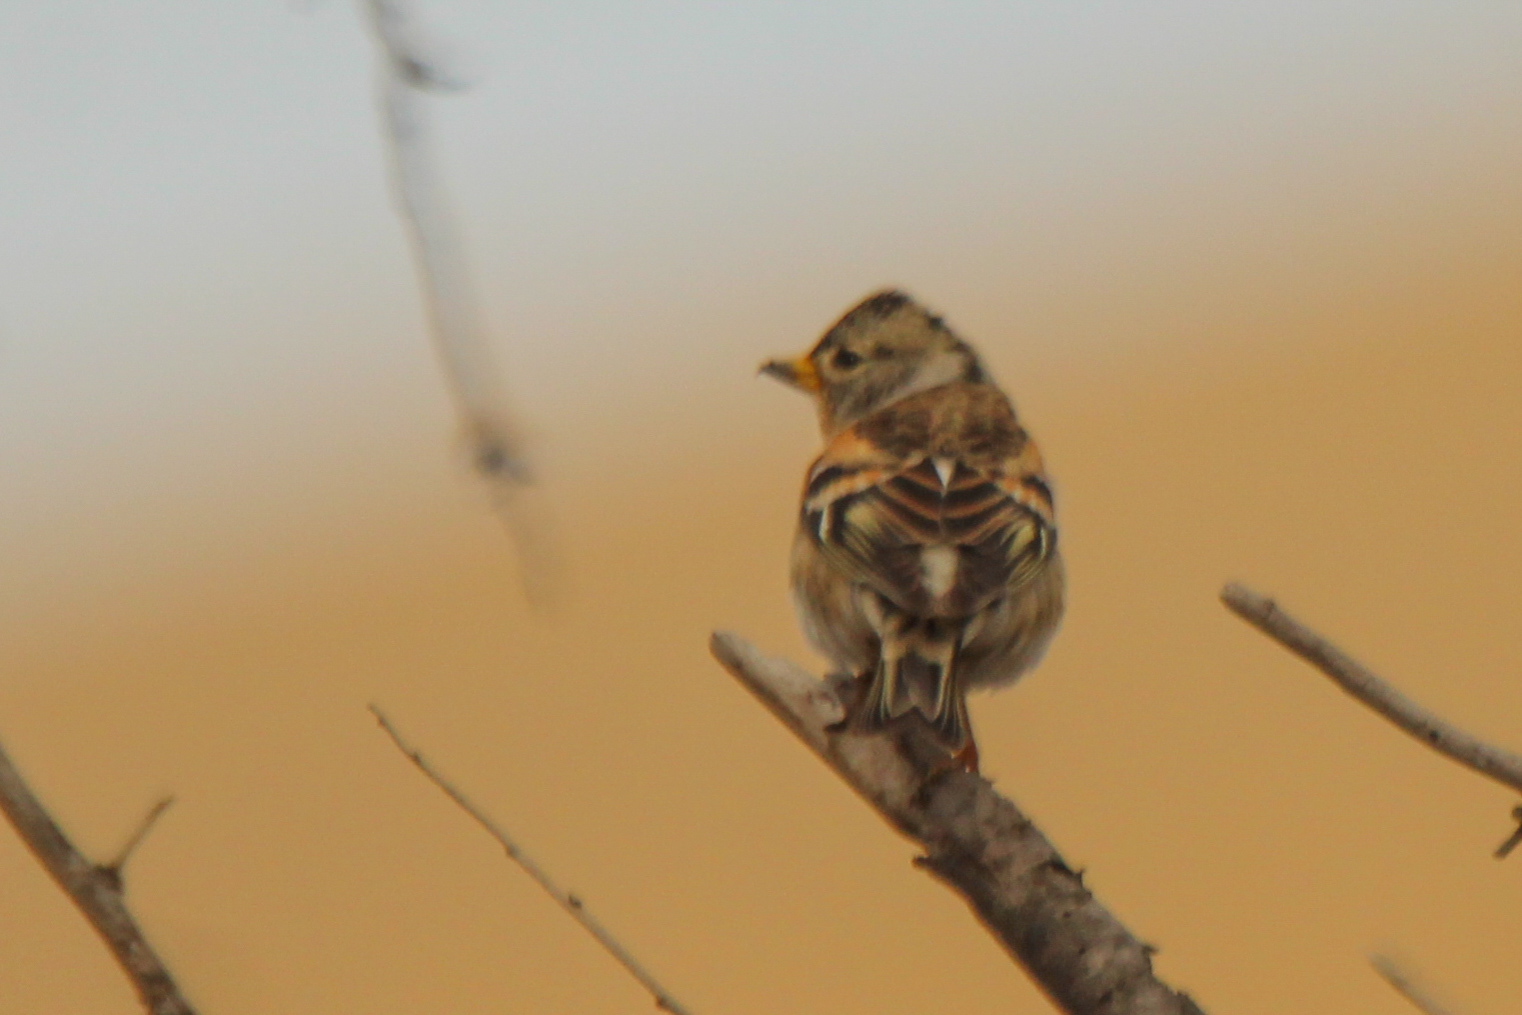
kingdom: Animalia
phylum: Chordata
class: Aves
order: Passeriformes
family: Fringillidae
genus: Fringilla
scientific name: Fringilla montifringilla
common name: Brambling
